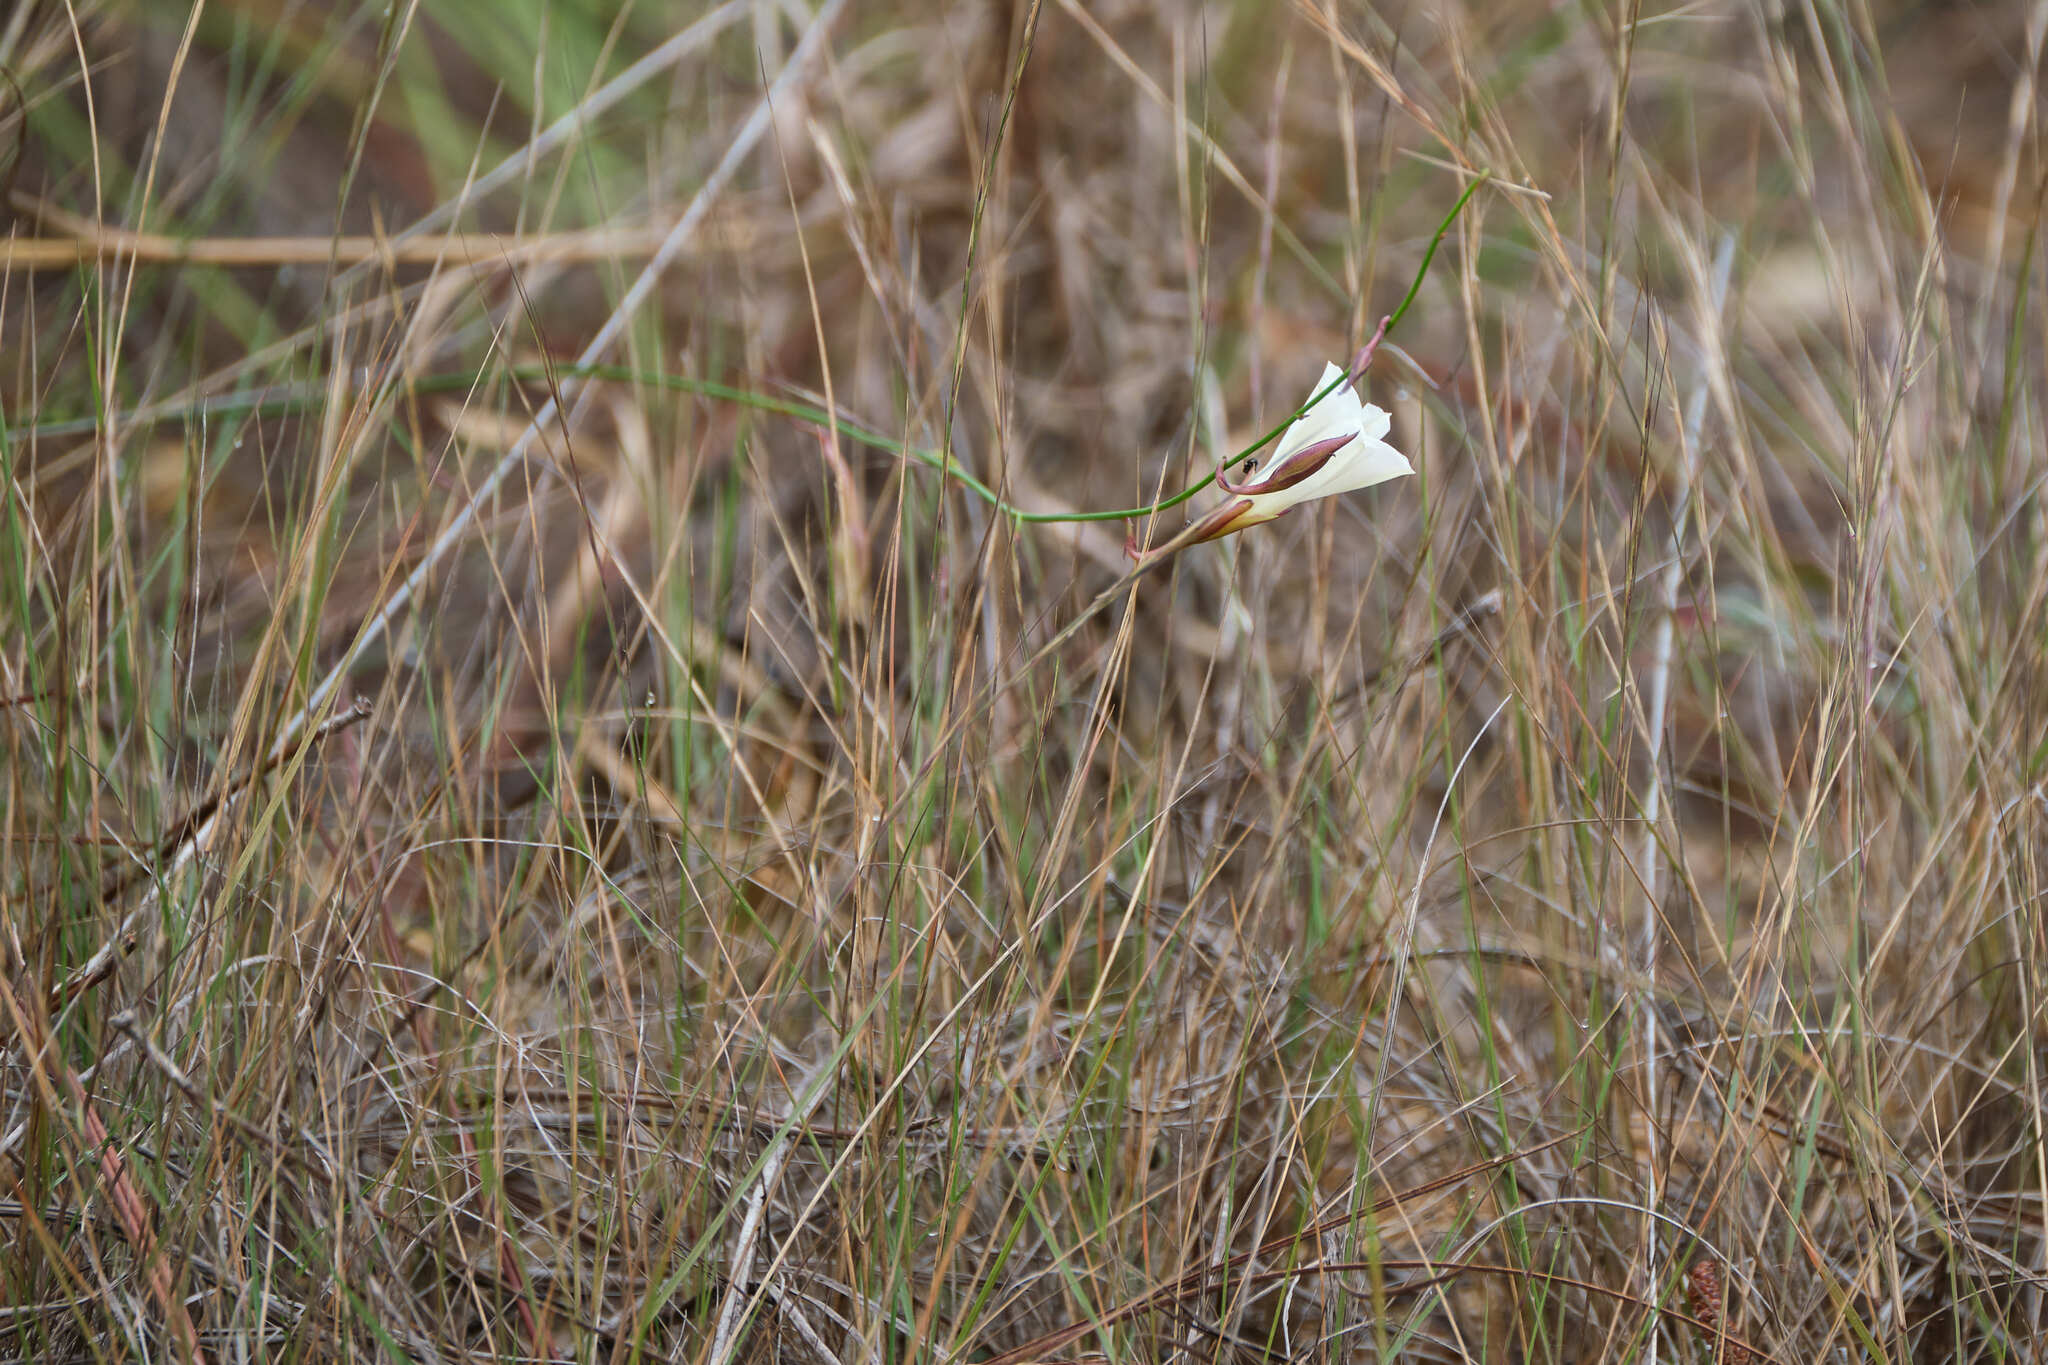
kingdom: Plantae
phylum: Tracheophyta
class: Magnoliopsida
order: Solanales
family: Convolvulaceae
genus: Distimake
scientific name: Distimake aturensis
